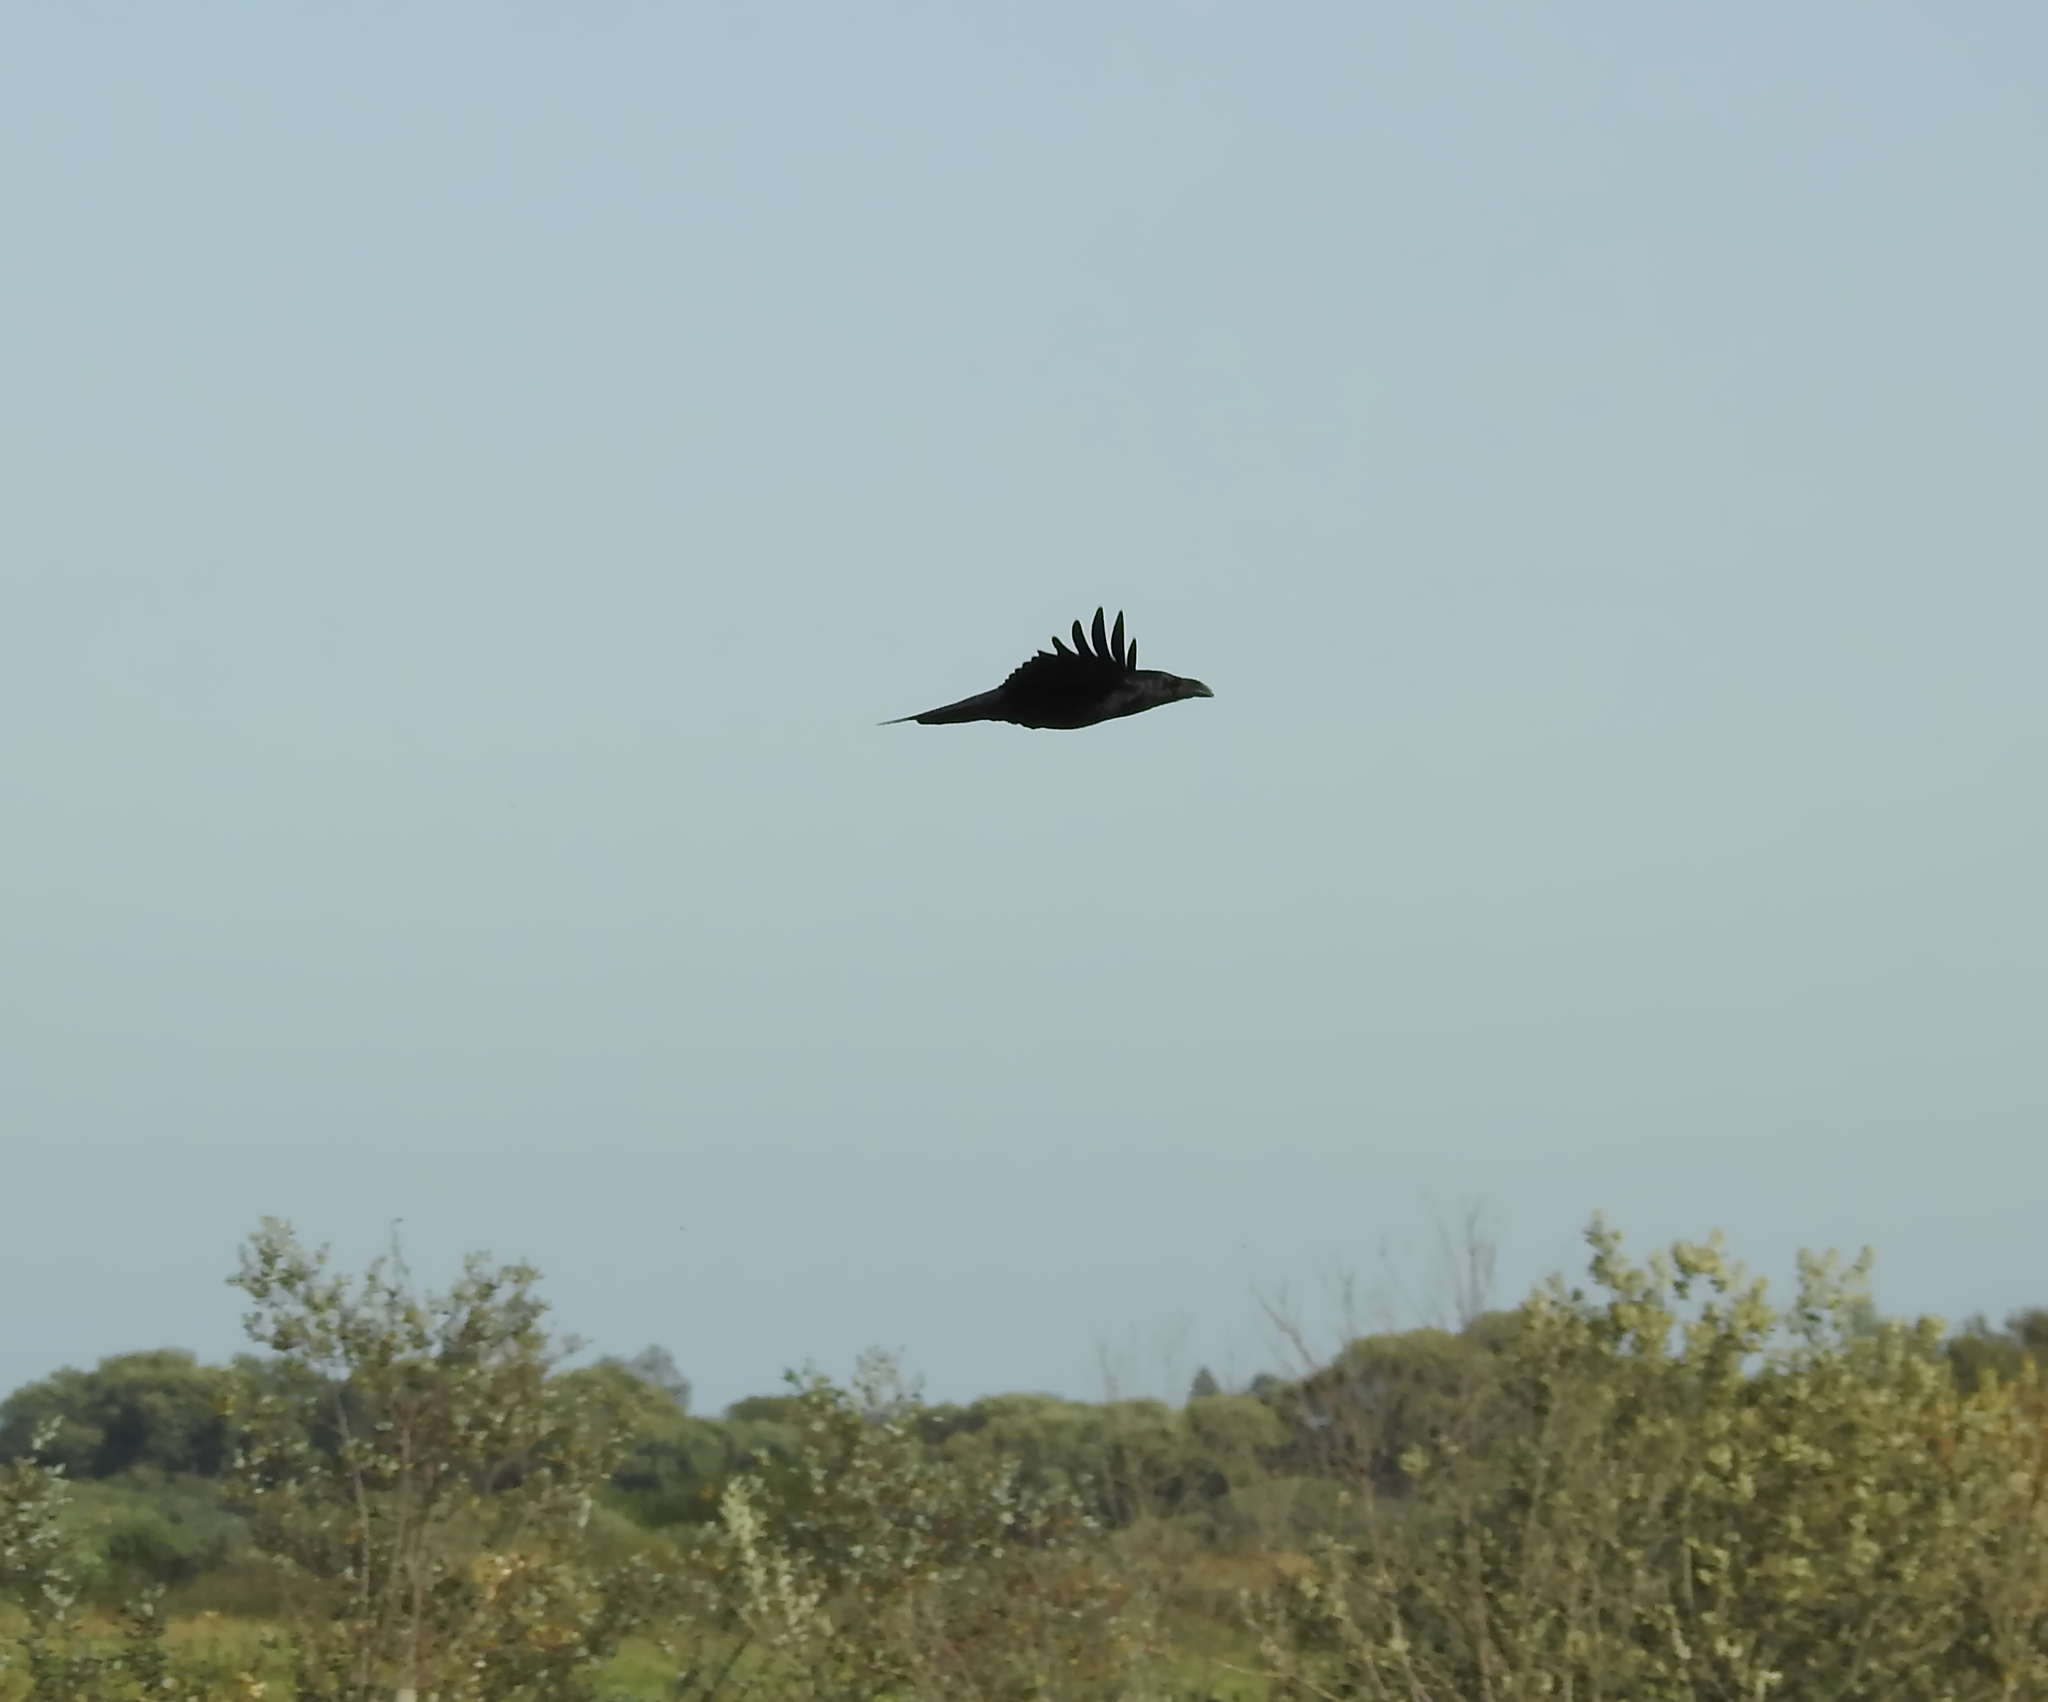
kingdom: Animalia
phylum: Chordata
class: Aves
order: Passeriformes
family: Corvidae
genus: Corvus
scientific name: Corvus corax
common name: Common raven
